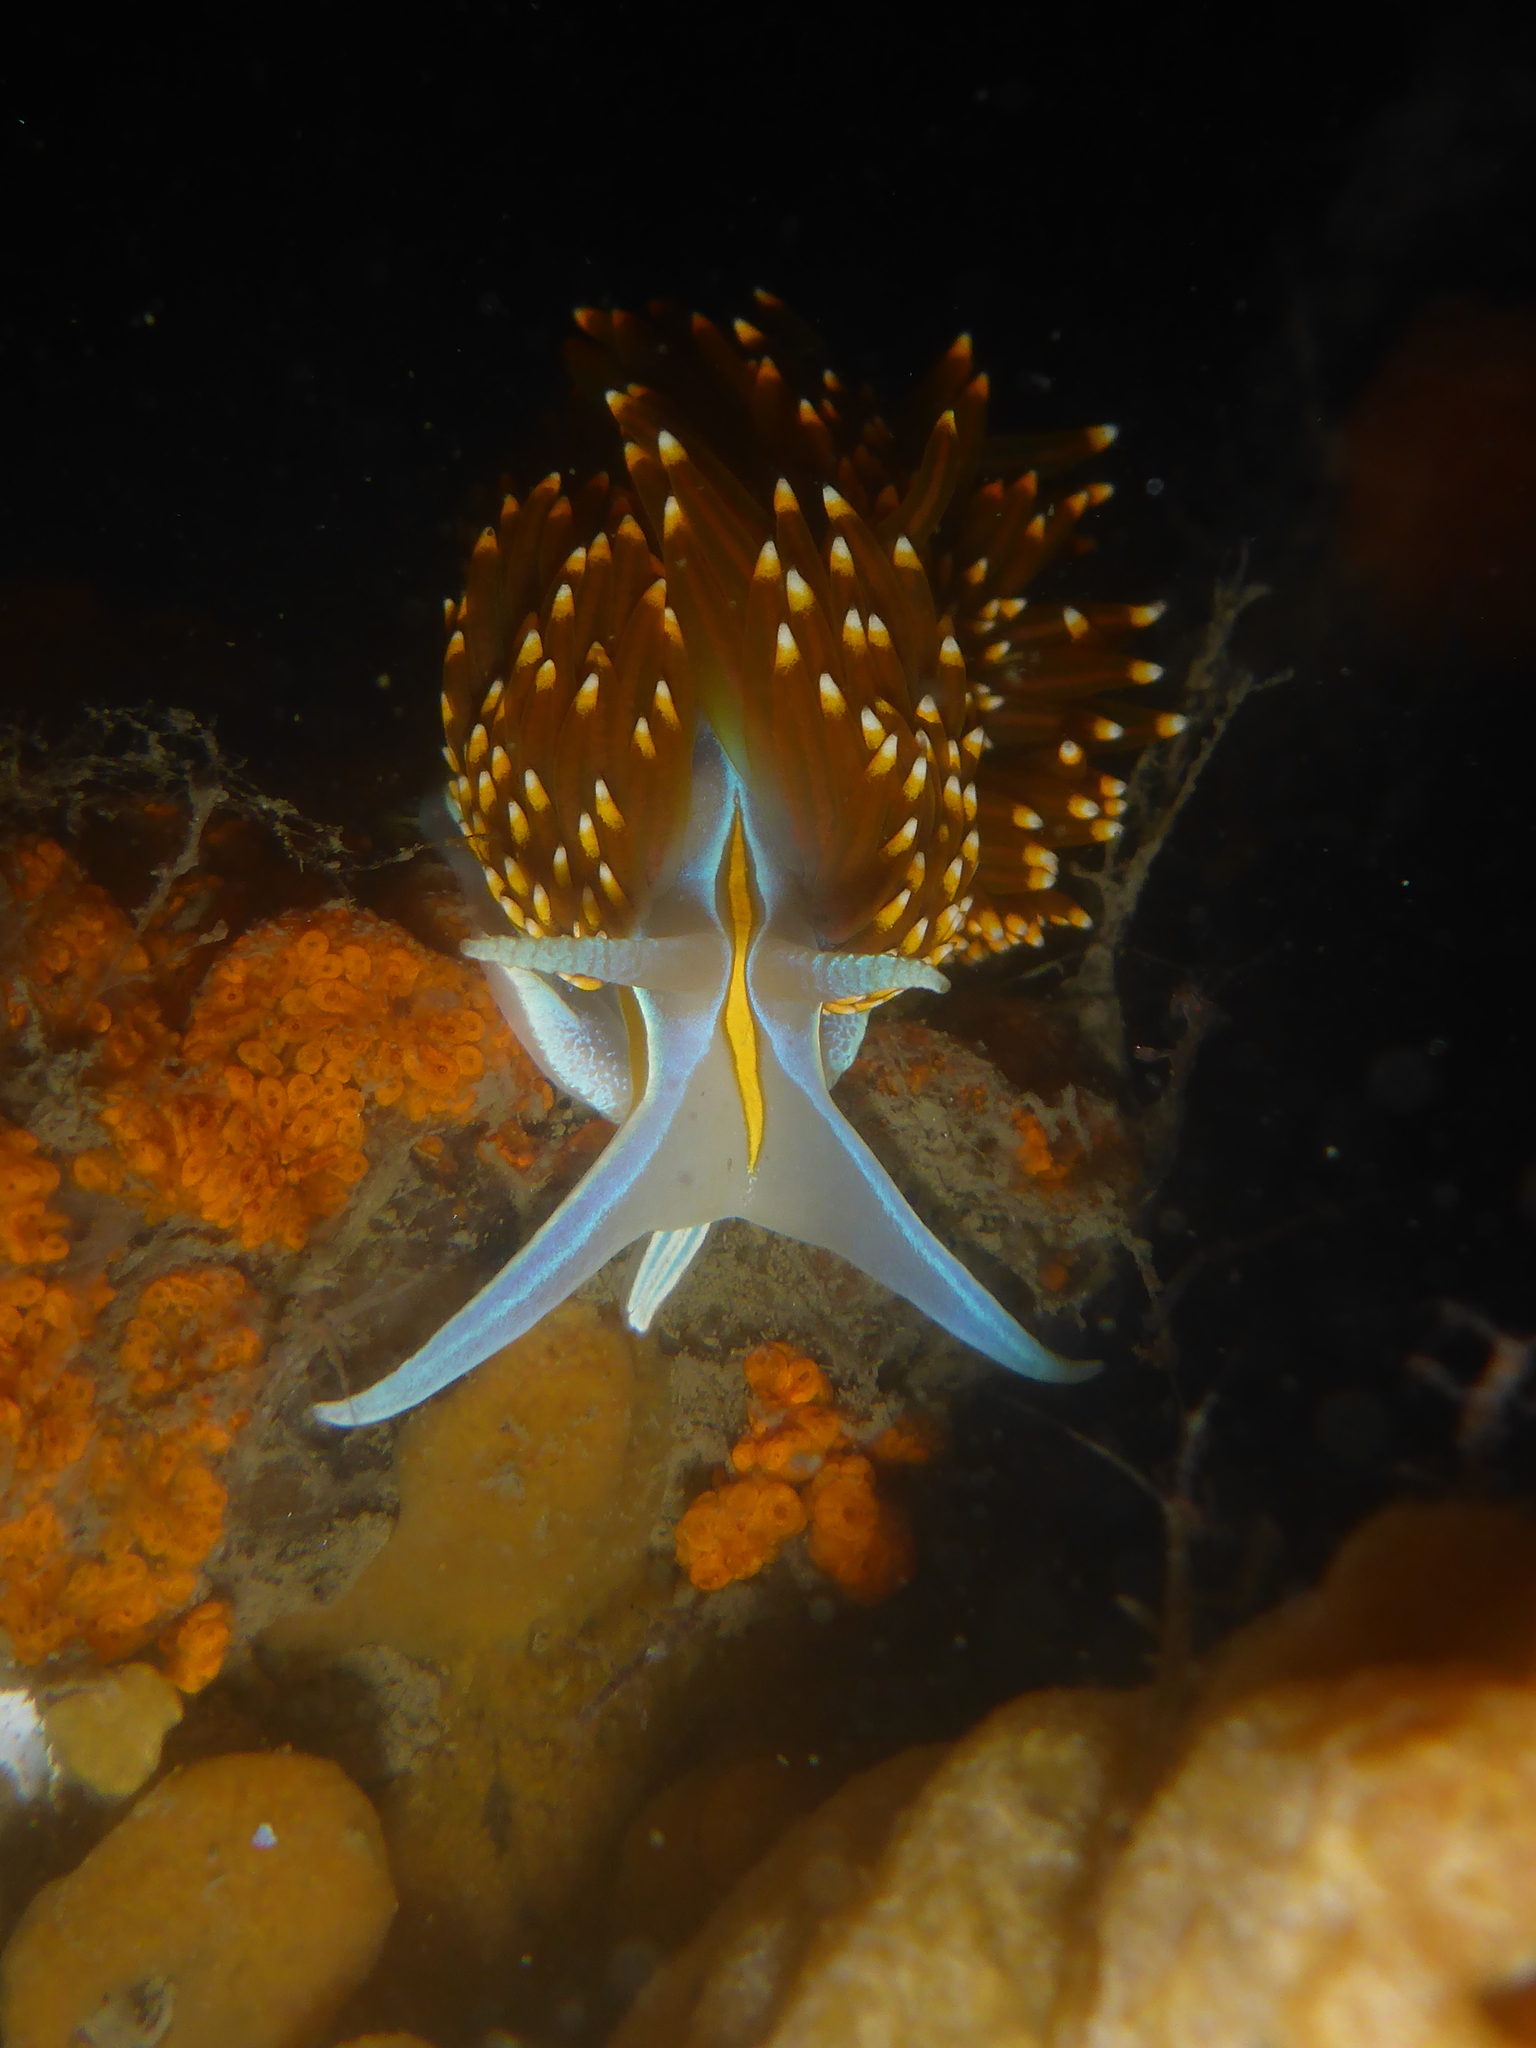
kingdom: Animalia
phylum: Mollusca
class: Gastropoda
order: Nudibranchia
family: Myrrhinidae
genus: Hermissenda
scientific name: Hermissenda opalescens
